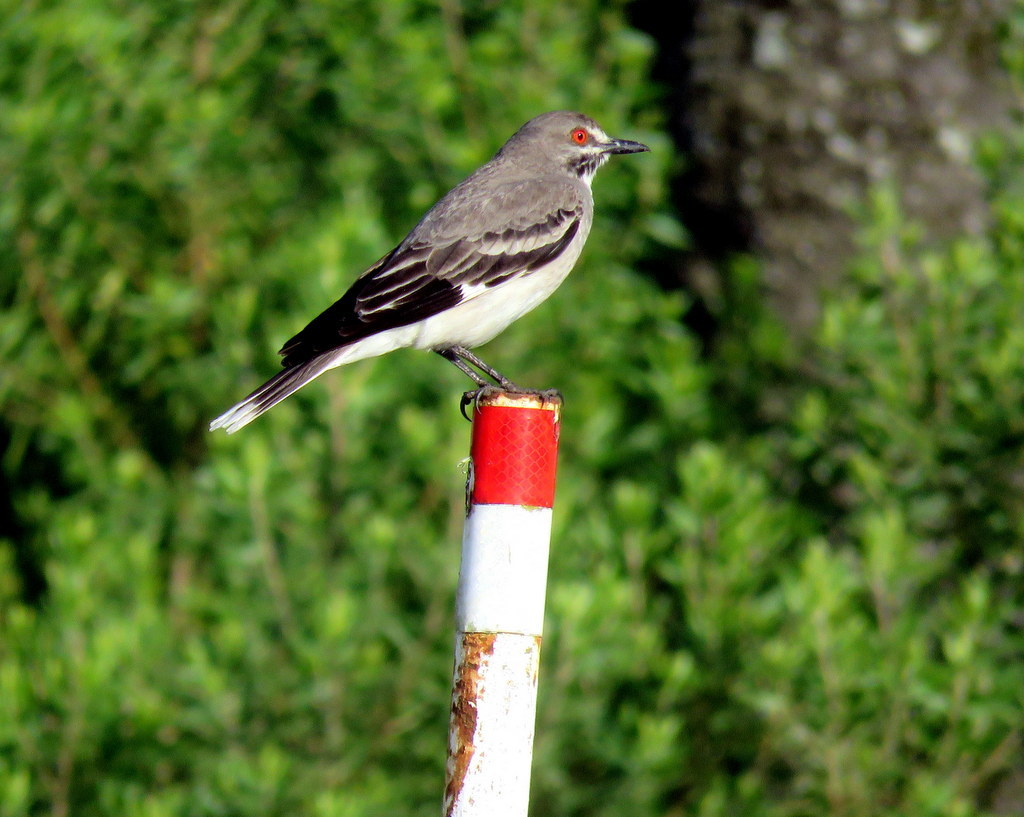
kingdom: Animalia
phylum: Chordata
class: Aves
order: Passeriformes
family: Tyrannidae
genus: Xolmis
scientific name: Xolmis cinereus
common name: Grey monjita
